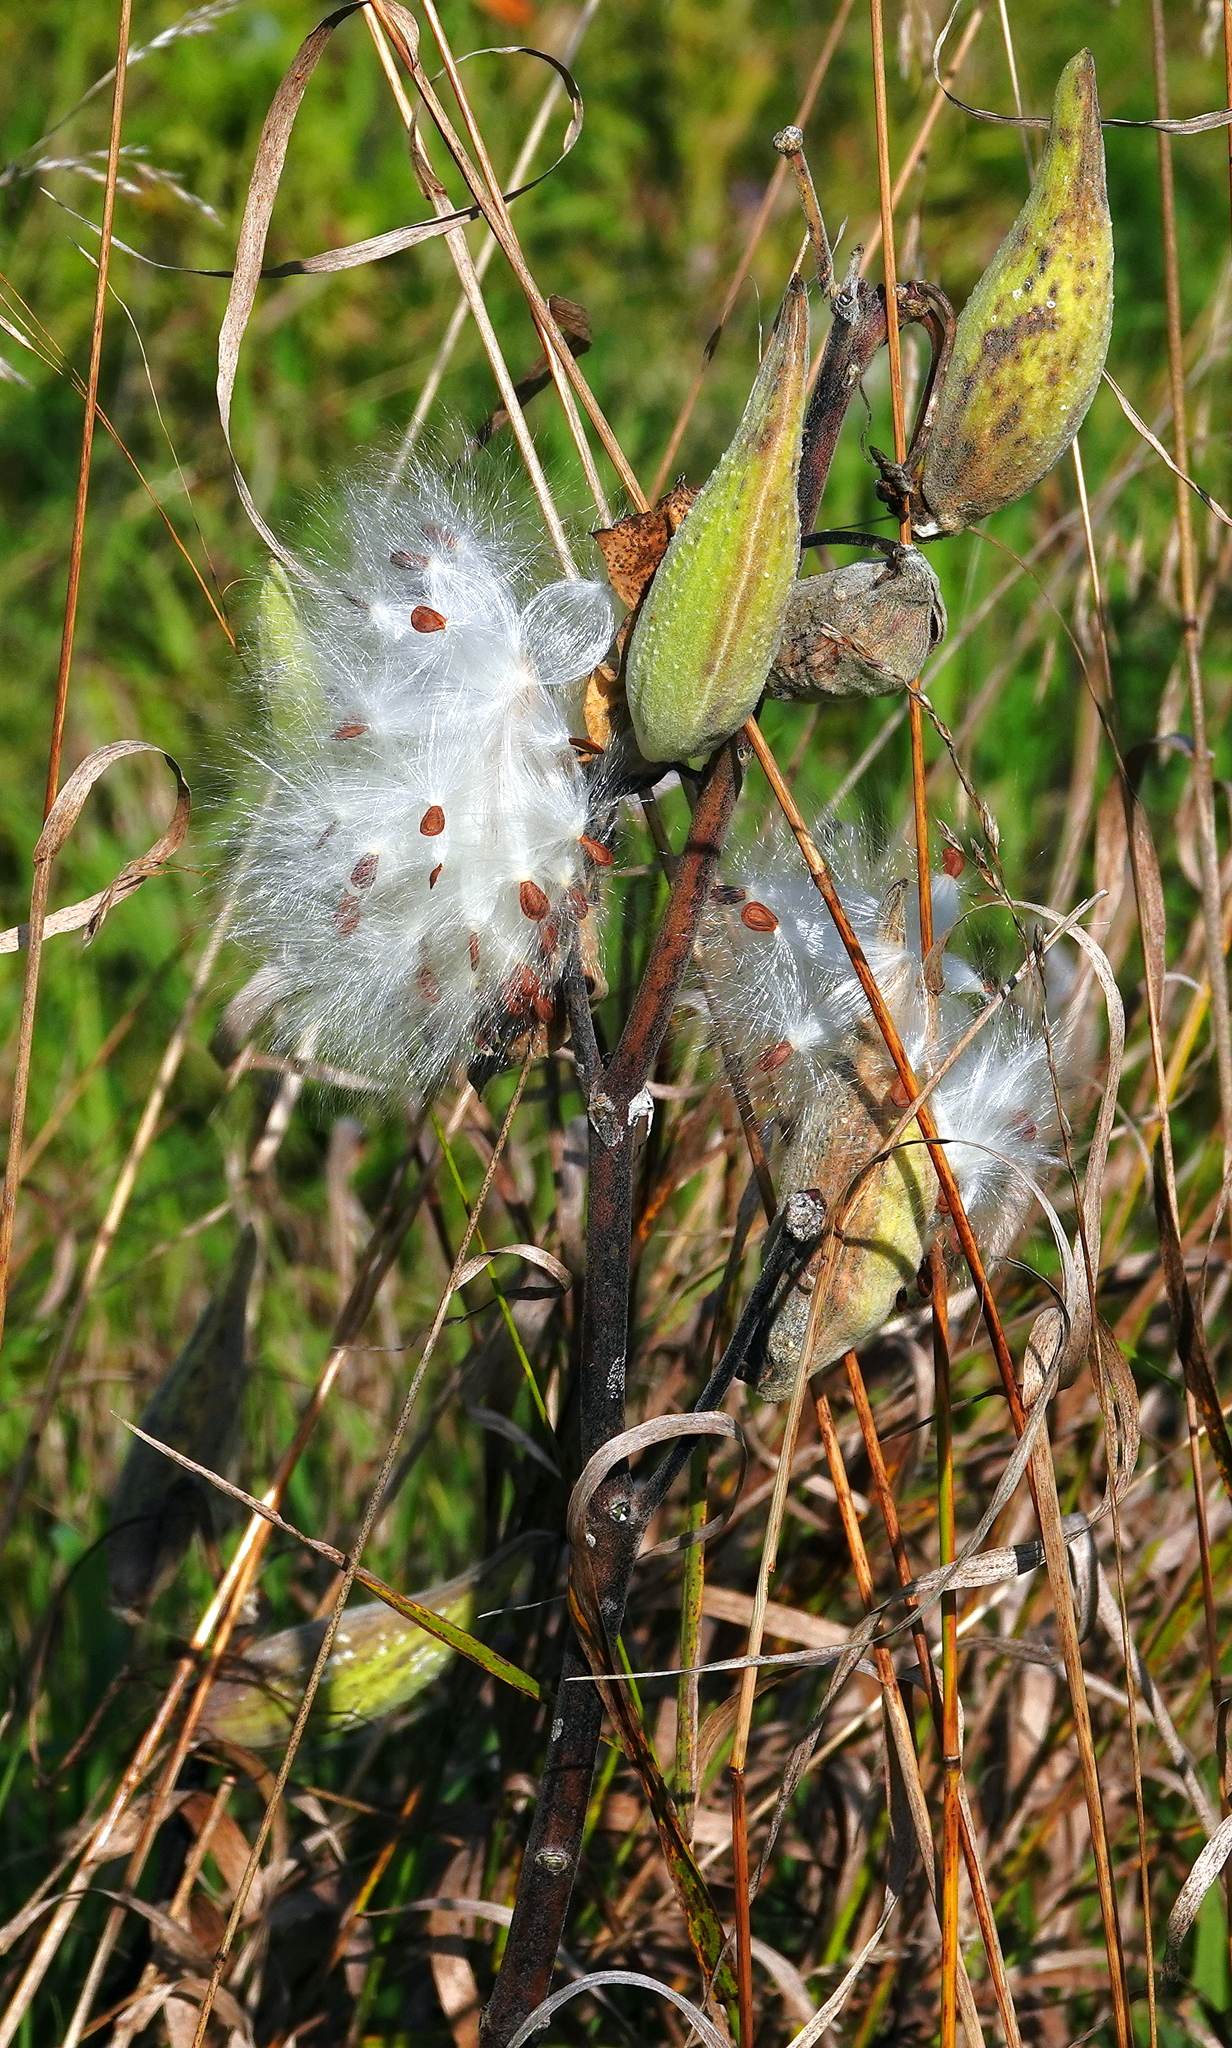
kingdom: Plantae
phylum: Tracheophyta
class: Magnoliopsida
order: Gentianales
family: Apocynaceae
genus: Asclepias
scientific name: Asclepias syriaca
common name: Common milkweed
